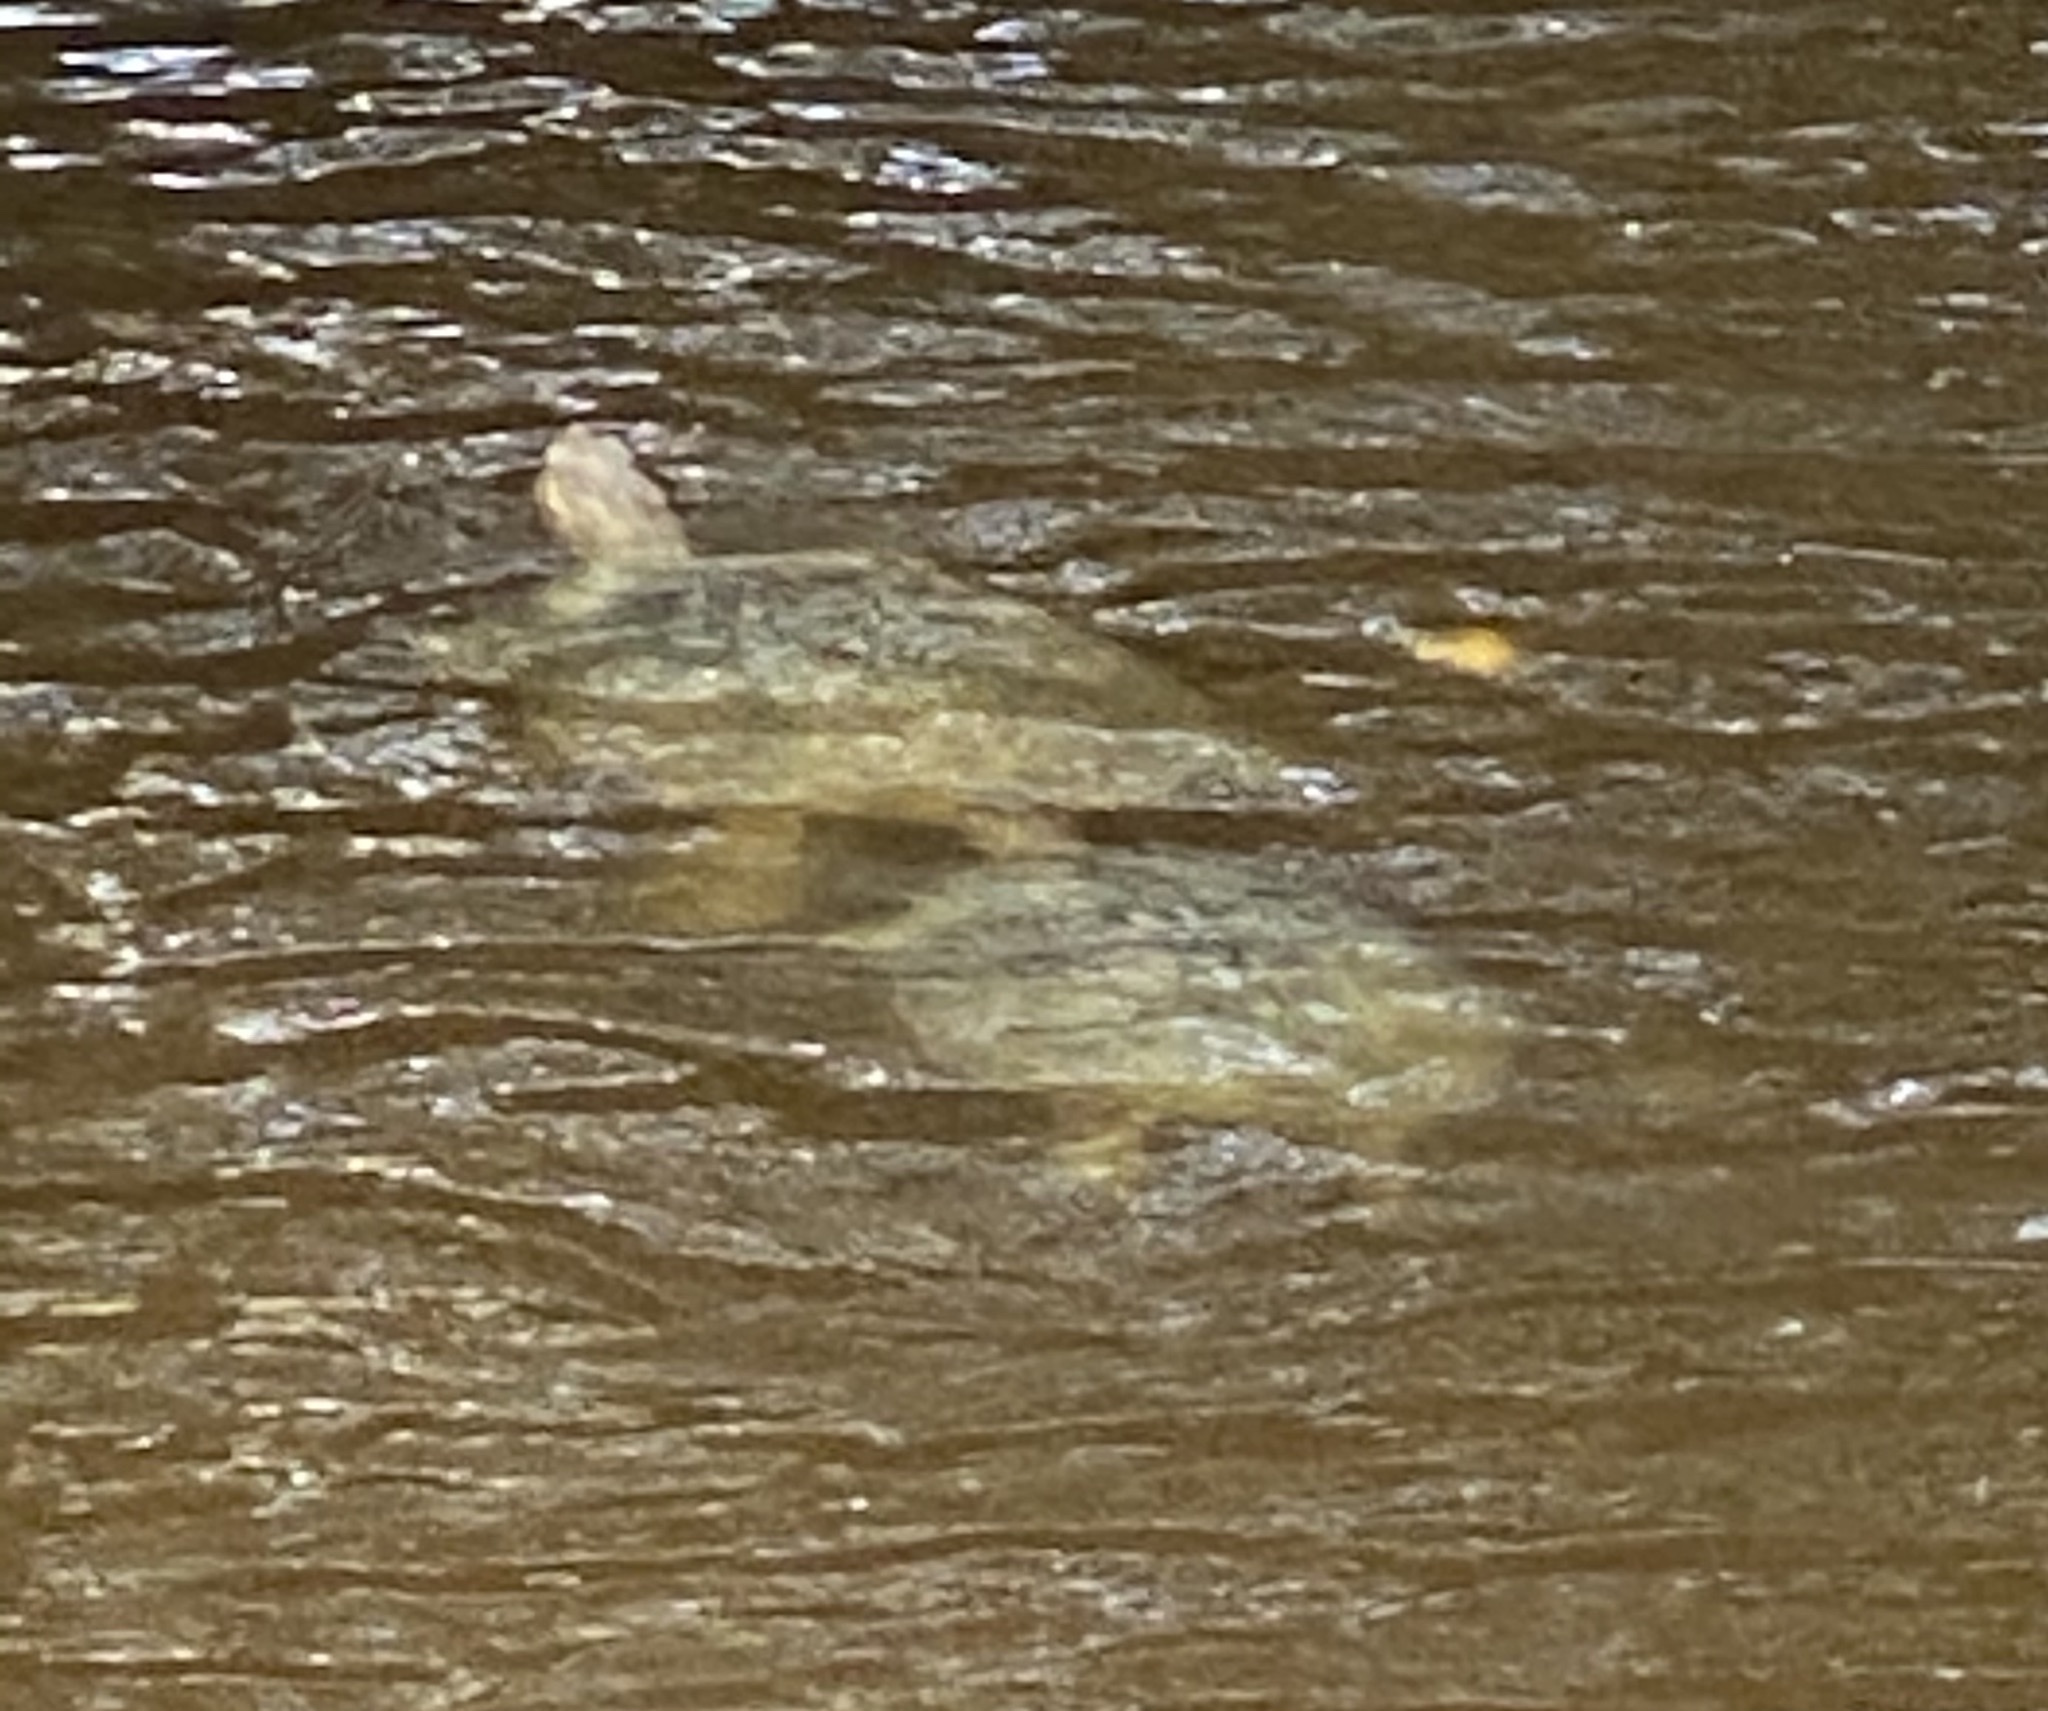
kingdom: Animalia
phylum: Chordata
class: Testudines
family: Emydidae
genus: Trachemys
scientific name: Trachemys venusta
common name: Mesoamerican slider
